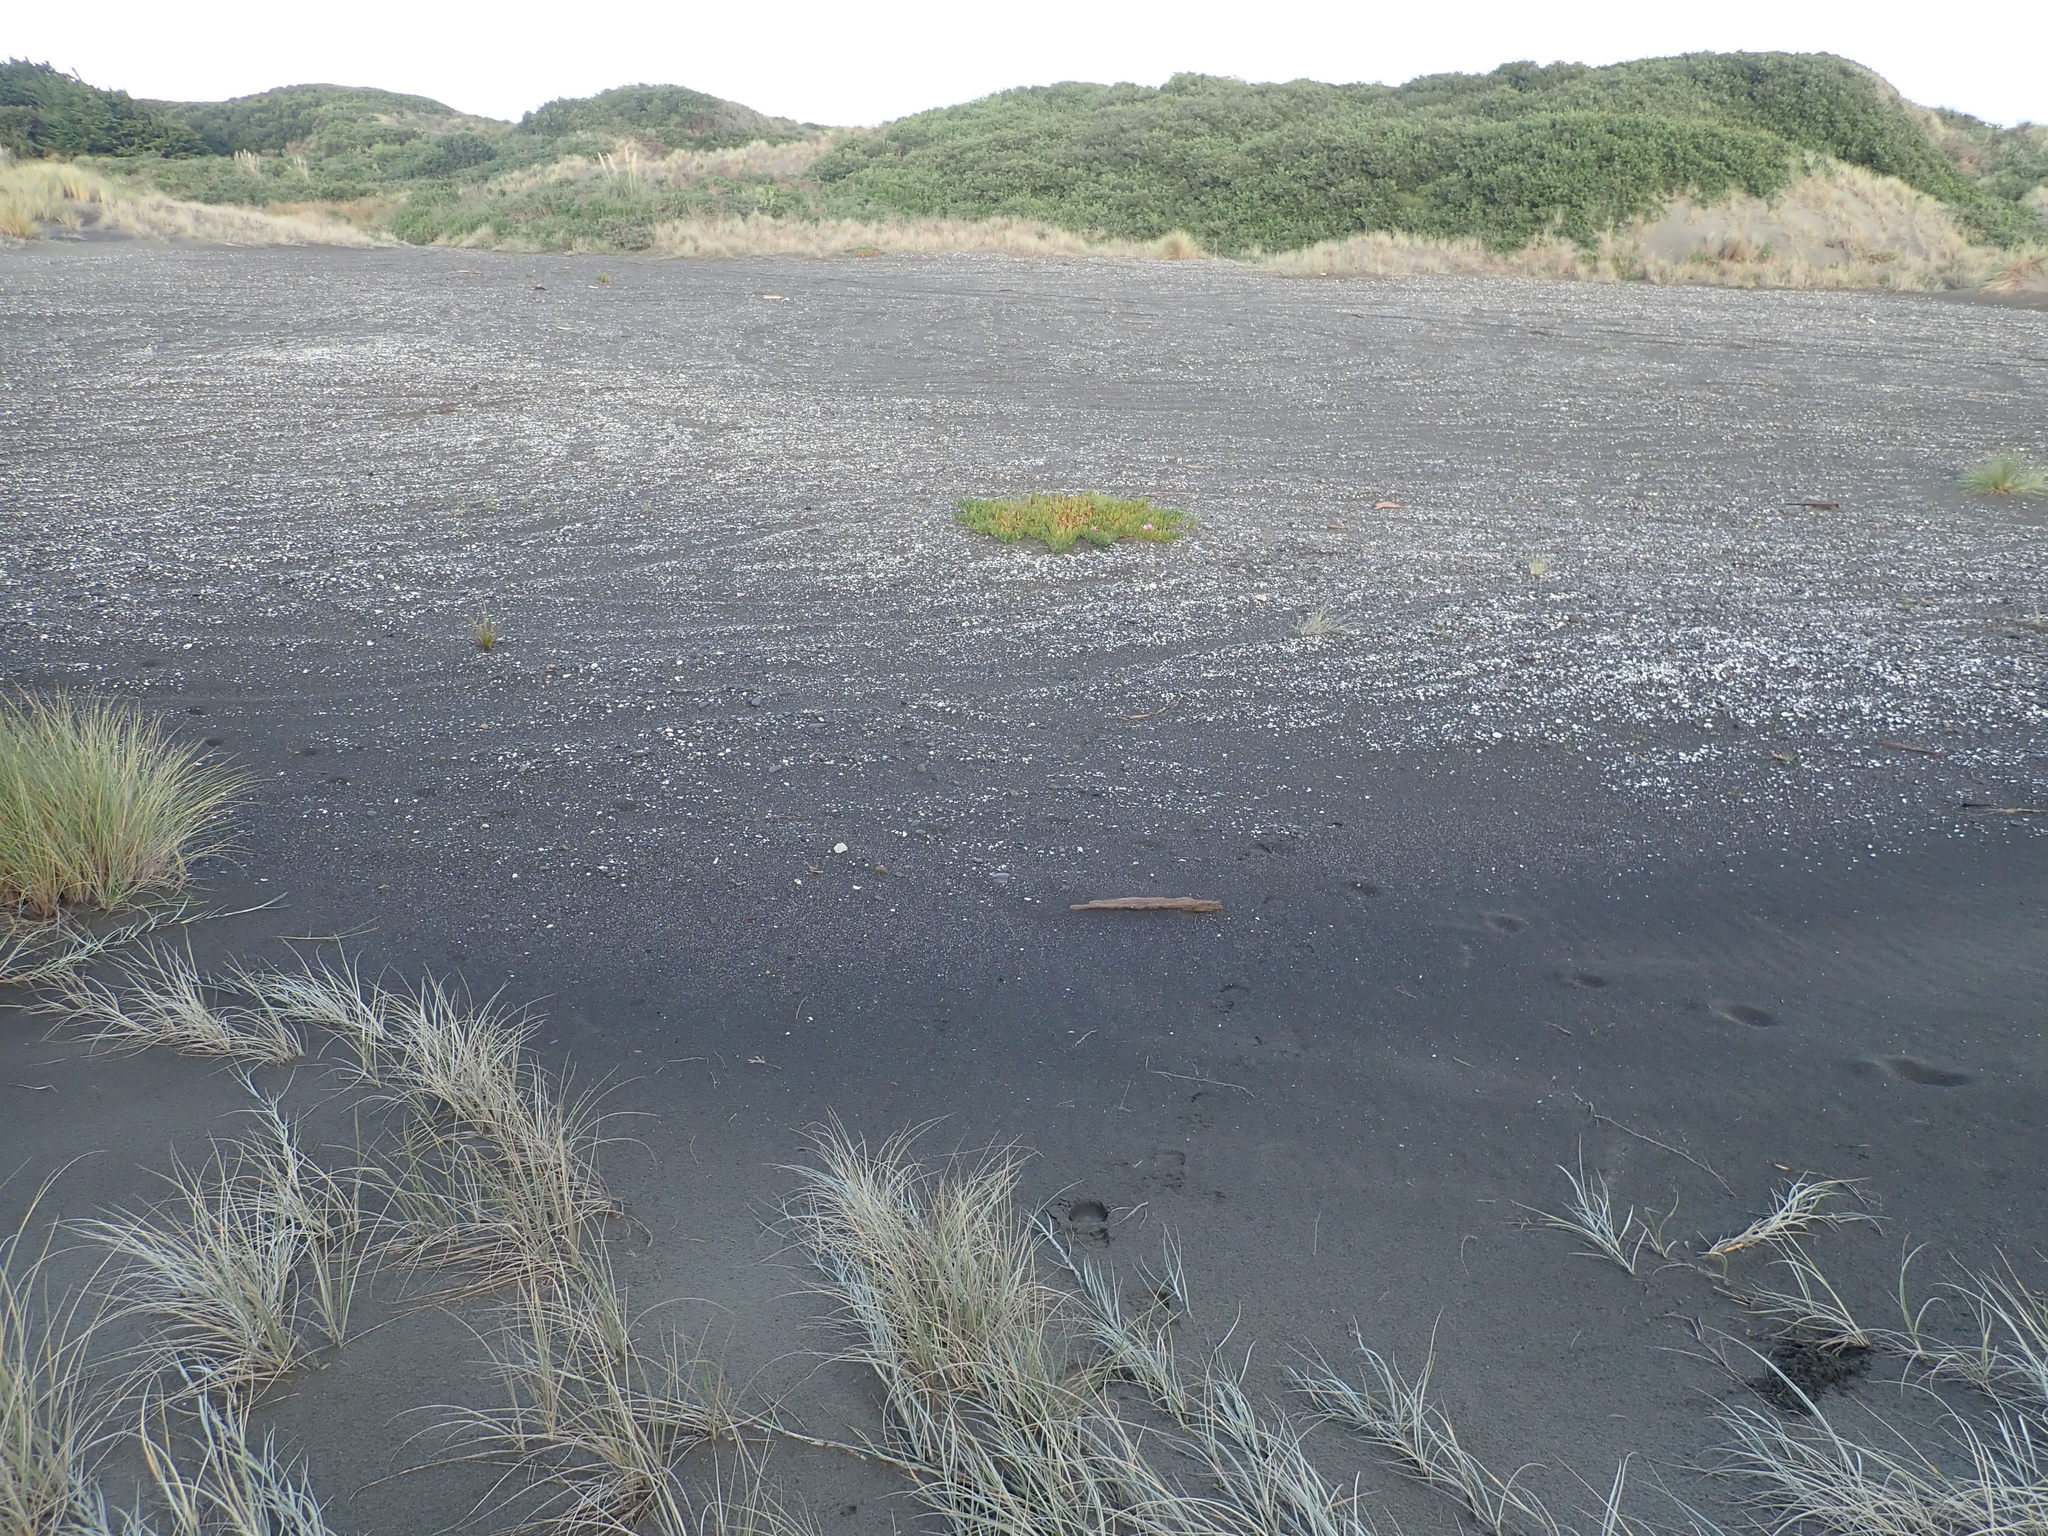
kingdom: Plantae
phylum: Tracheophyta
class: Magnoliopsida
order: Caryophyllales
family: Aizoaceae
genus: Carpobrotus
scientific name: Carpobrotus chilensis
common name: Sea fig
